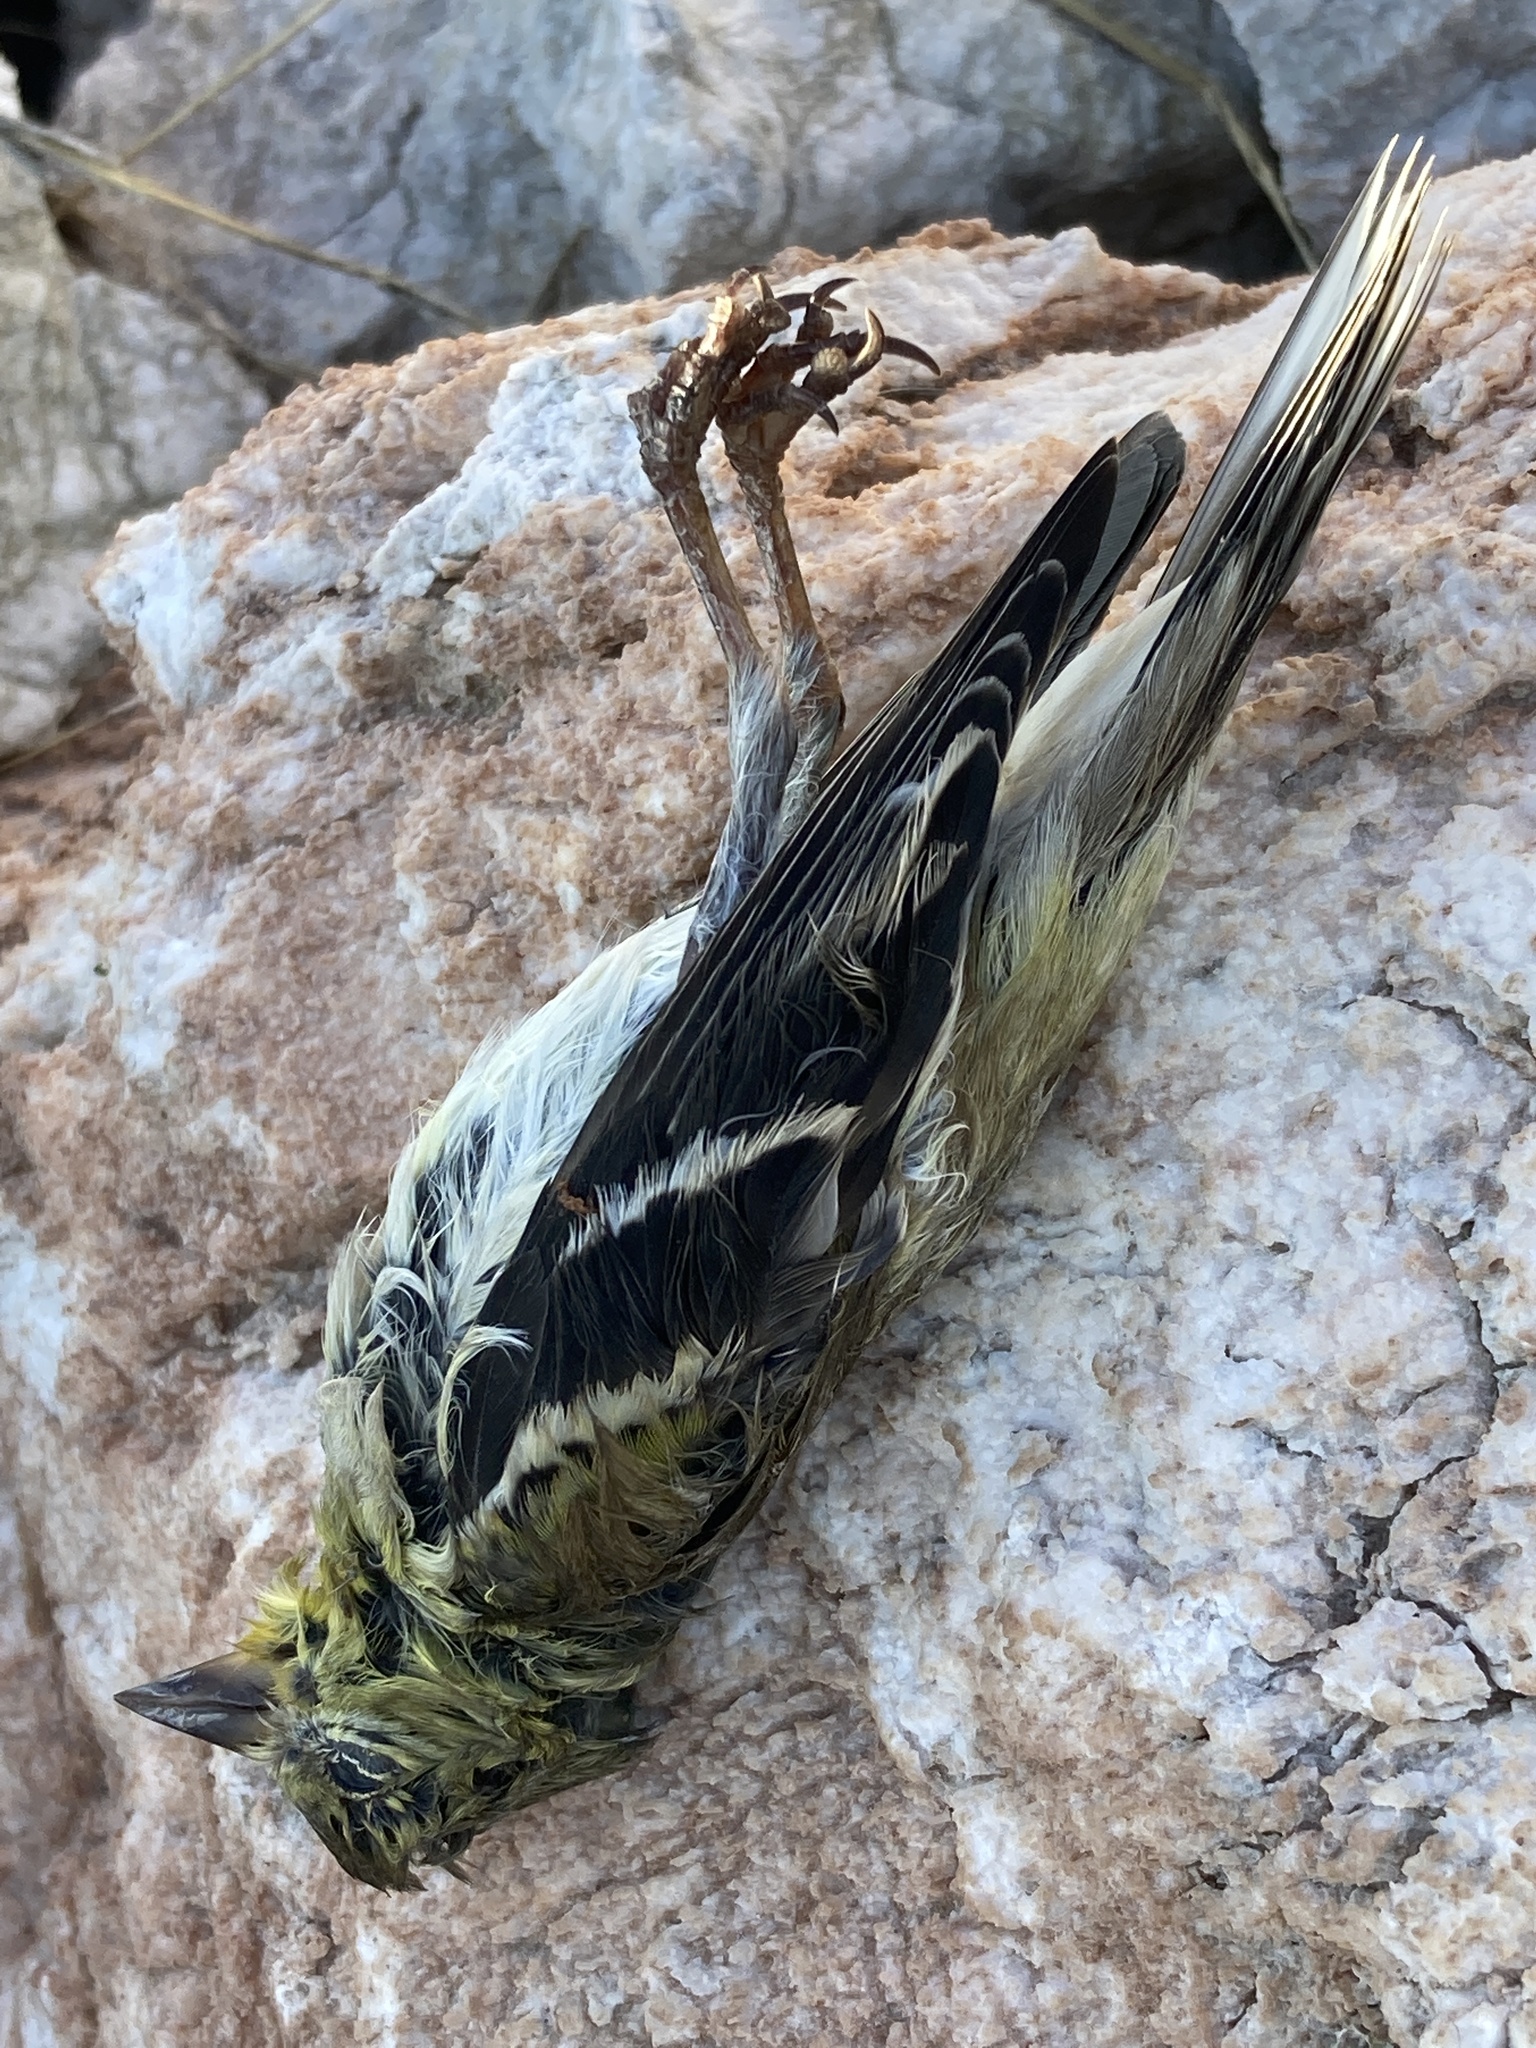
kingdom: Animalia
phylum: Chordata
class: Aves
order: Passeriformes
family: Fringillidae
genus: Spinus
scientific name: Spinus tristis
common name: American goldfinch
